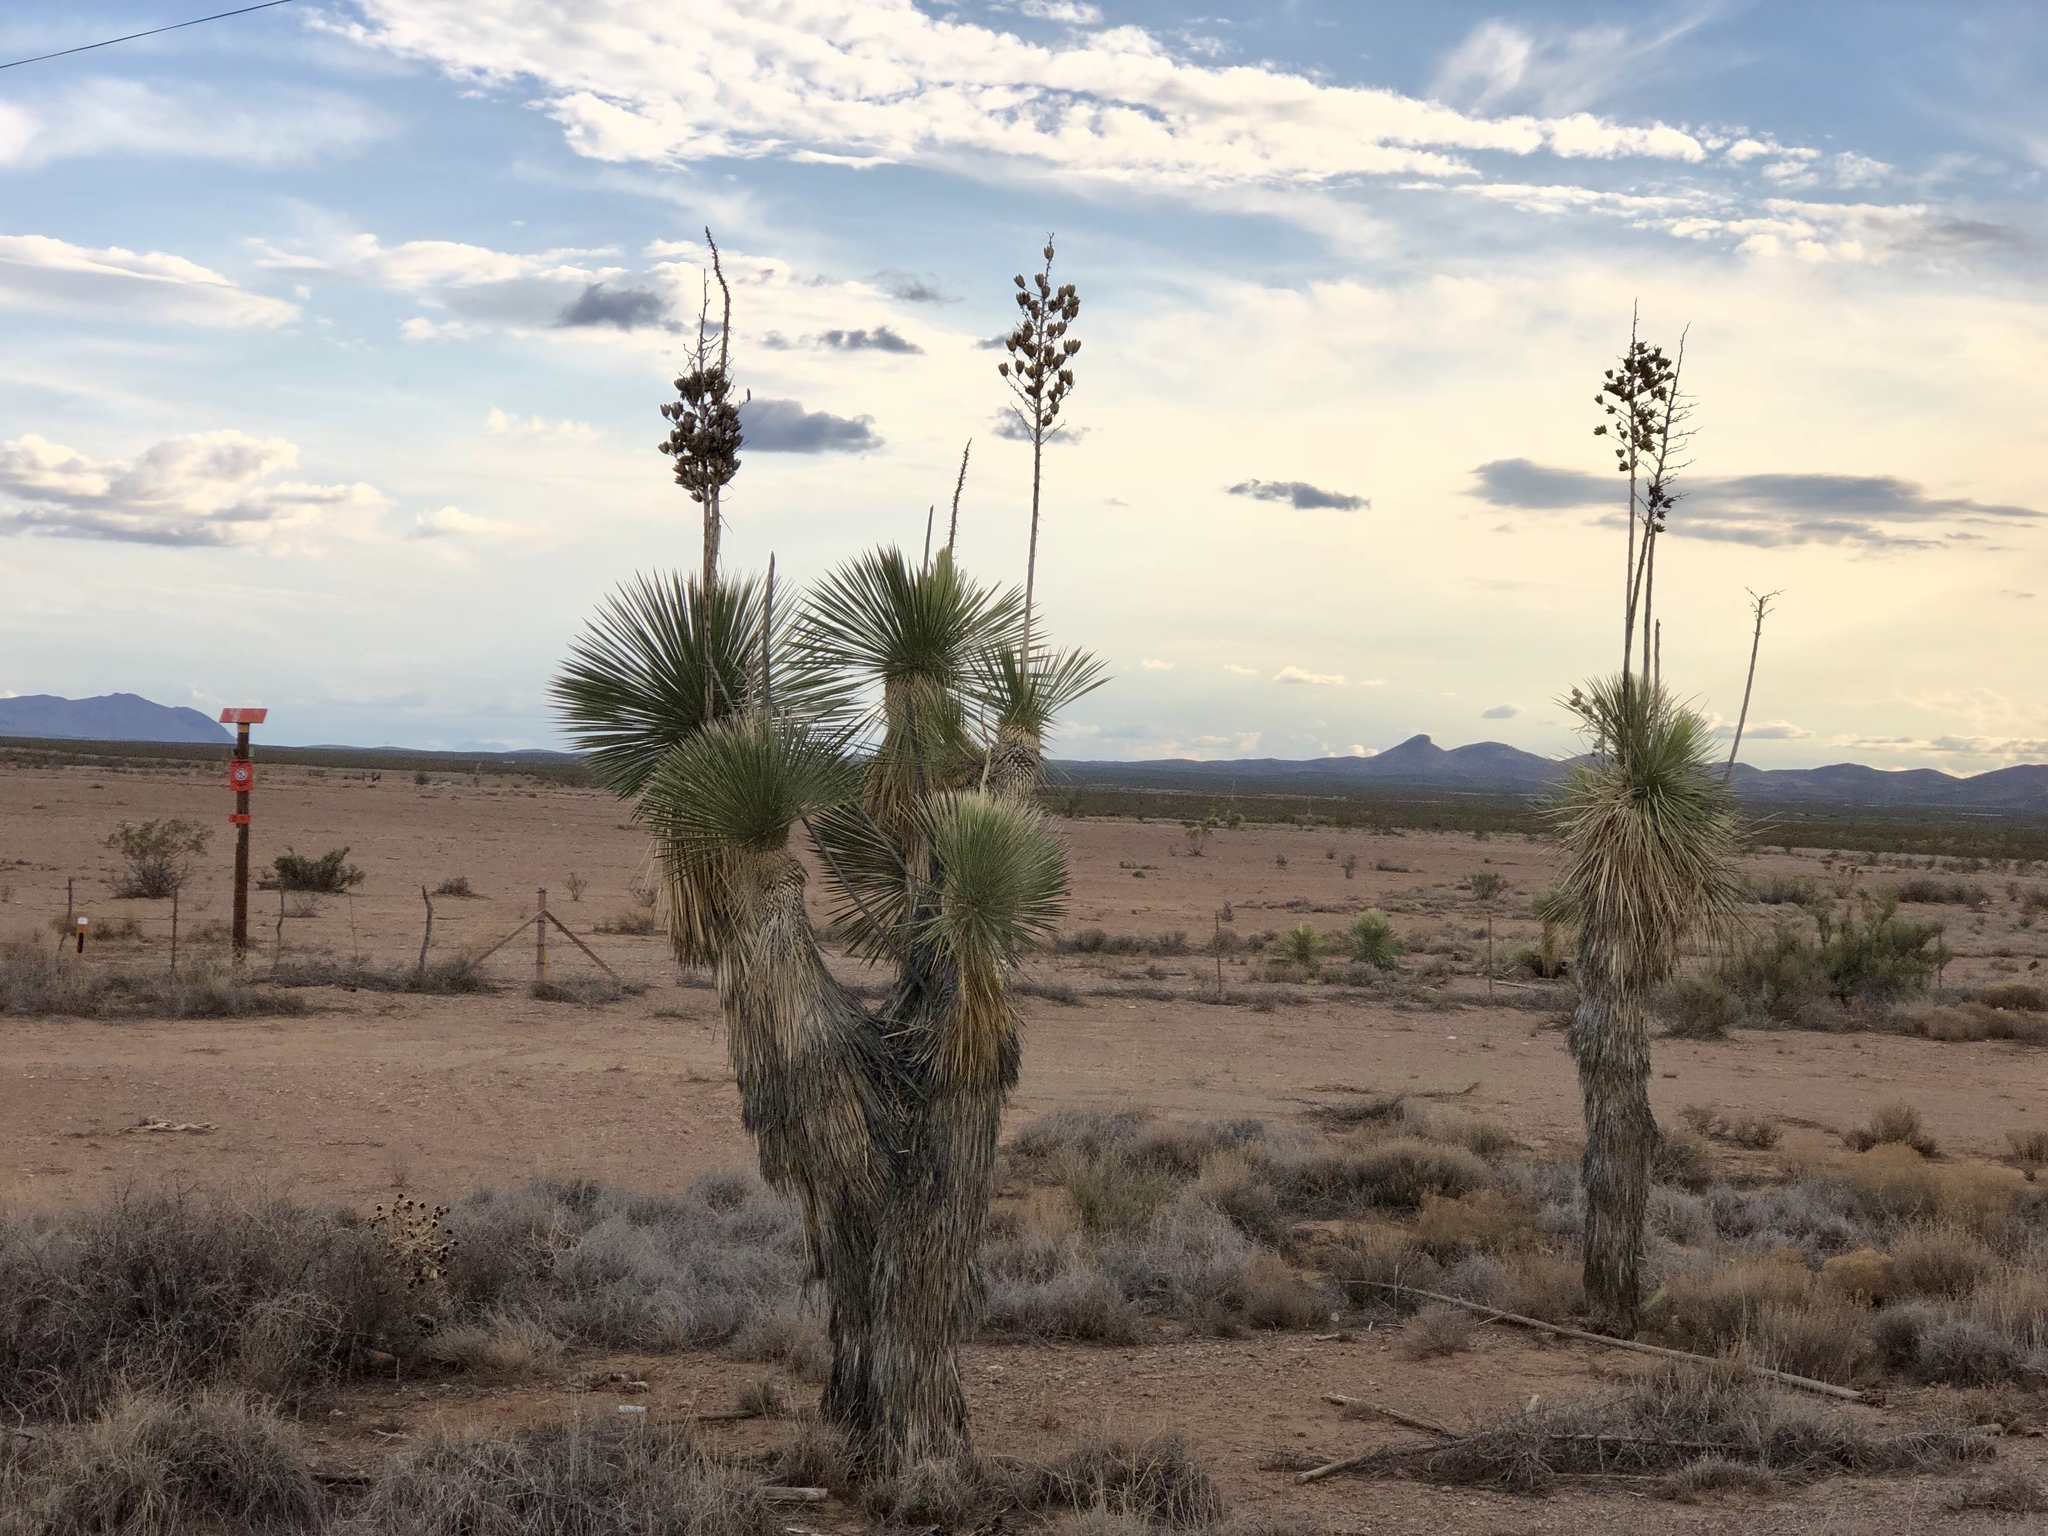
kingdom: Plantae
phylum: Tracheophyta
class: Liliopsida
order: Asparagales
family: Asparagaceae
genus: Yucca
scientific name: Yucca elata
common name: Palmella
